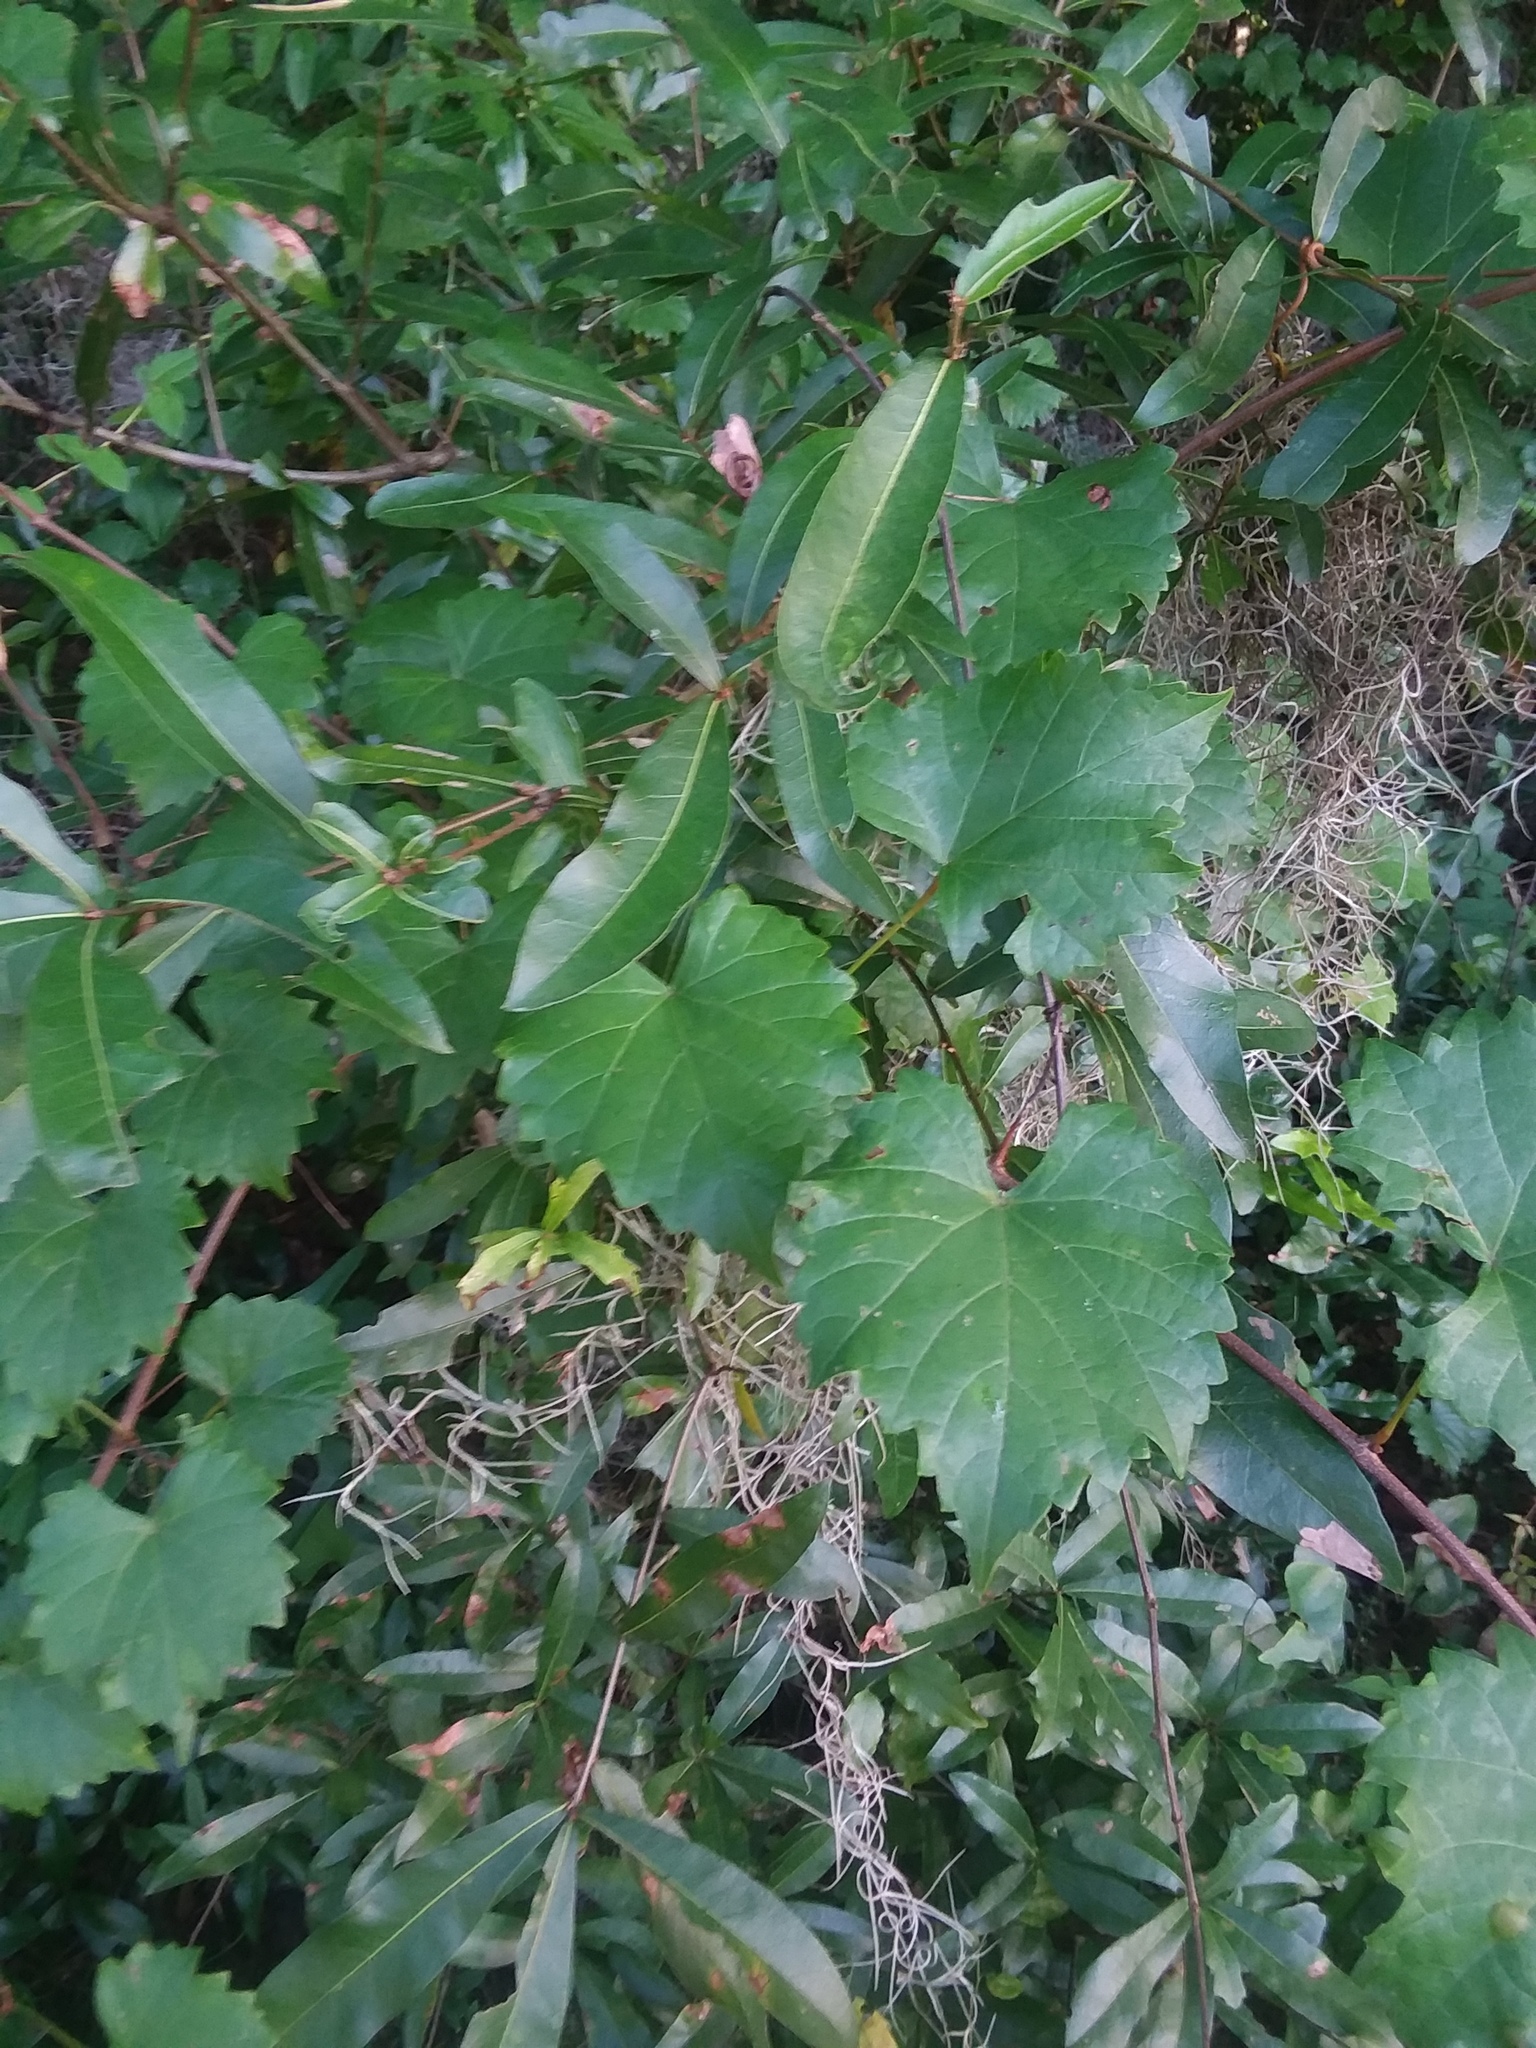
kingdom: Plantae
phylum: Tracheophyta
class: Magnoliopsida
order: Vitales
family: Vitaceae
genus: Vitis
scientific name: Vitis rotundifolia
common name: Muscadine grape
